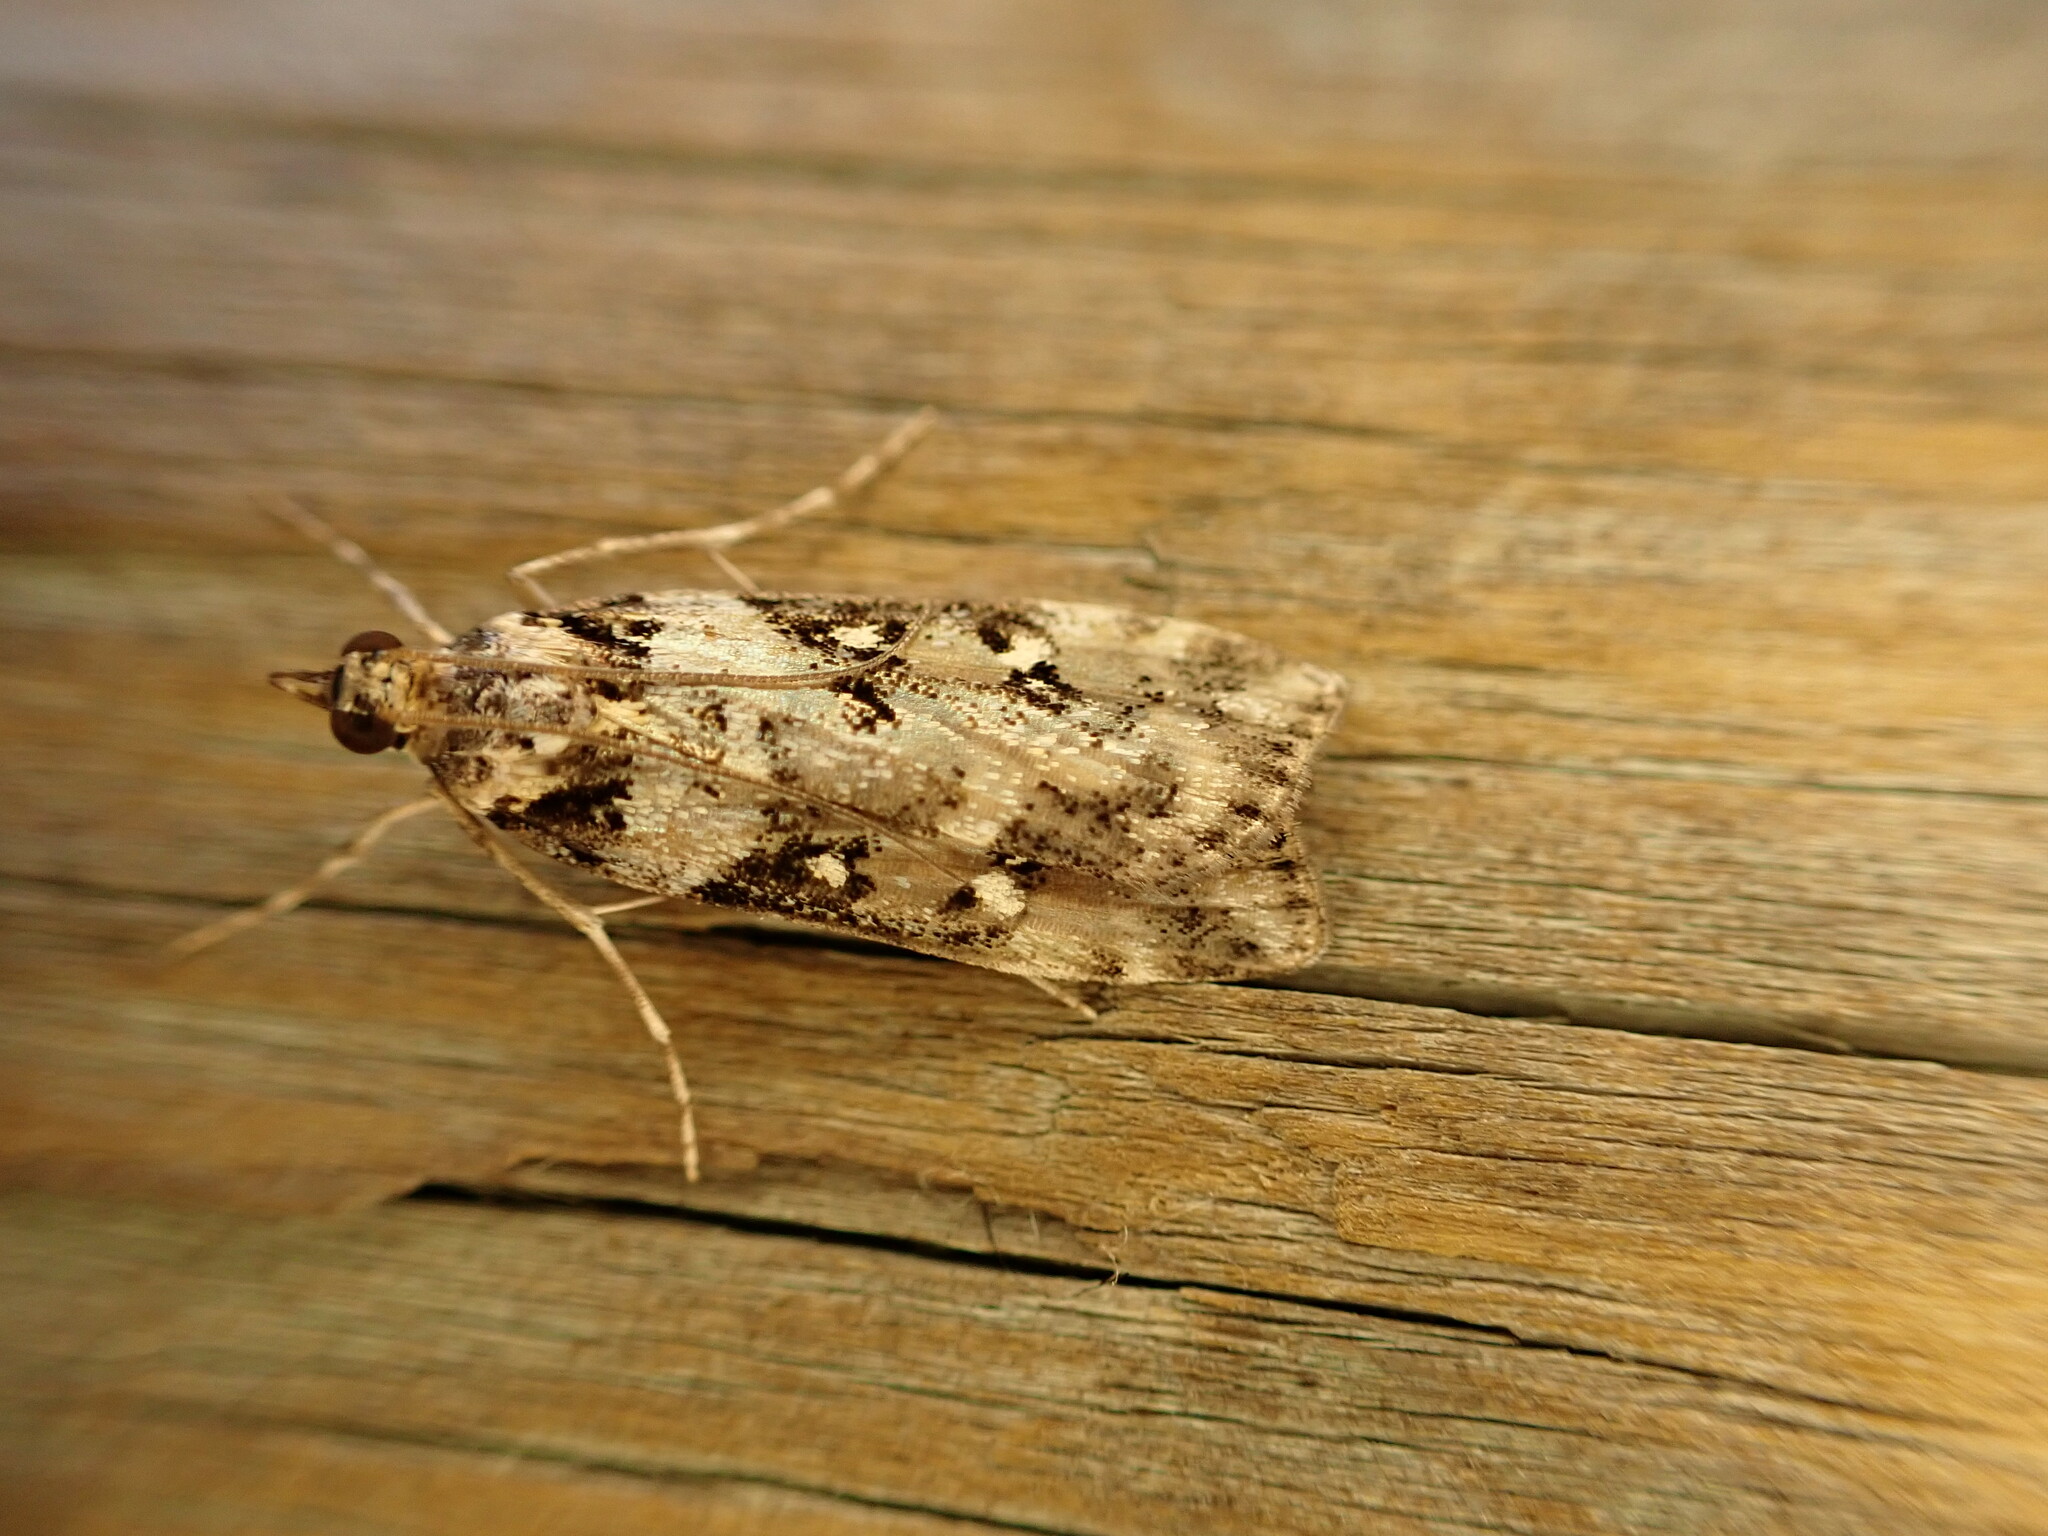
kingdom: Animalia
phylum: Arthropoda
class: Insecta
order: Lepidoptera
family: Crambidae
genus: Eudonia
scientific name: Eudonia diphtheralis
